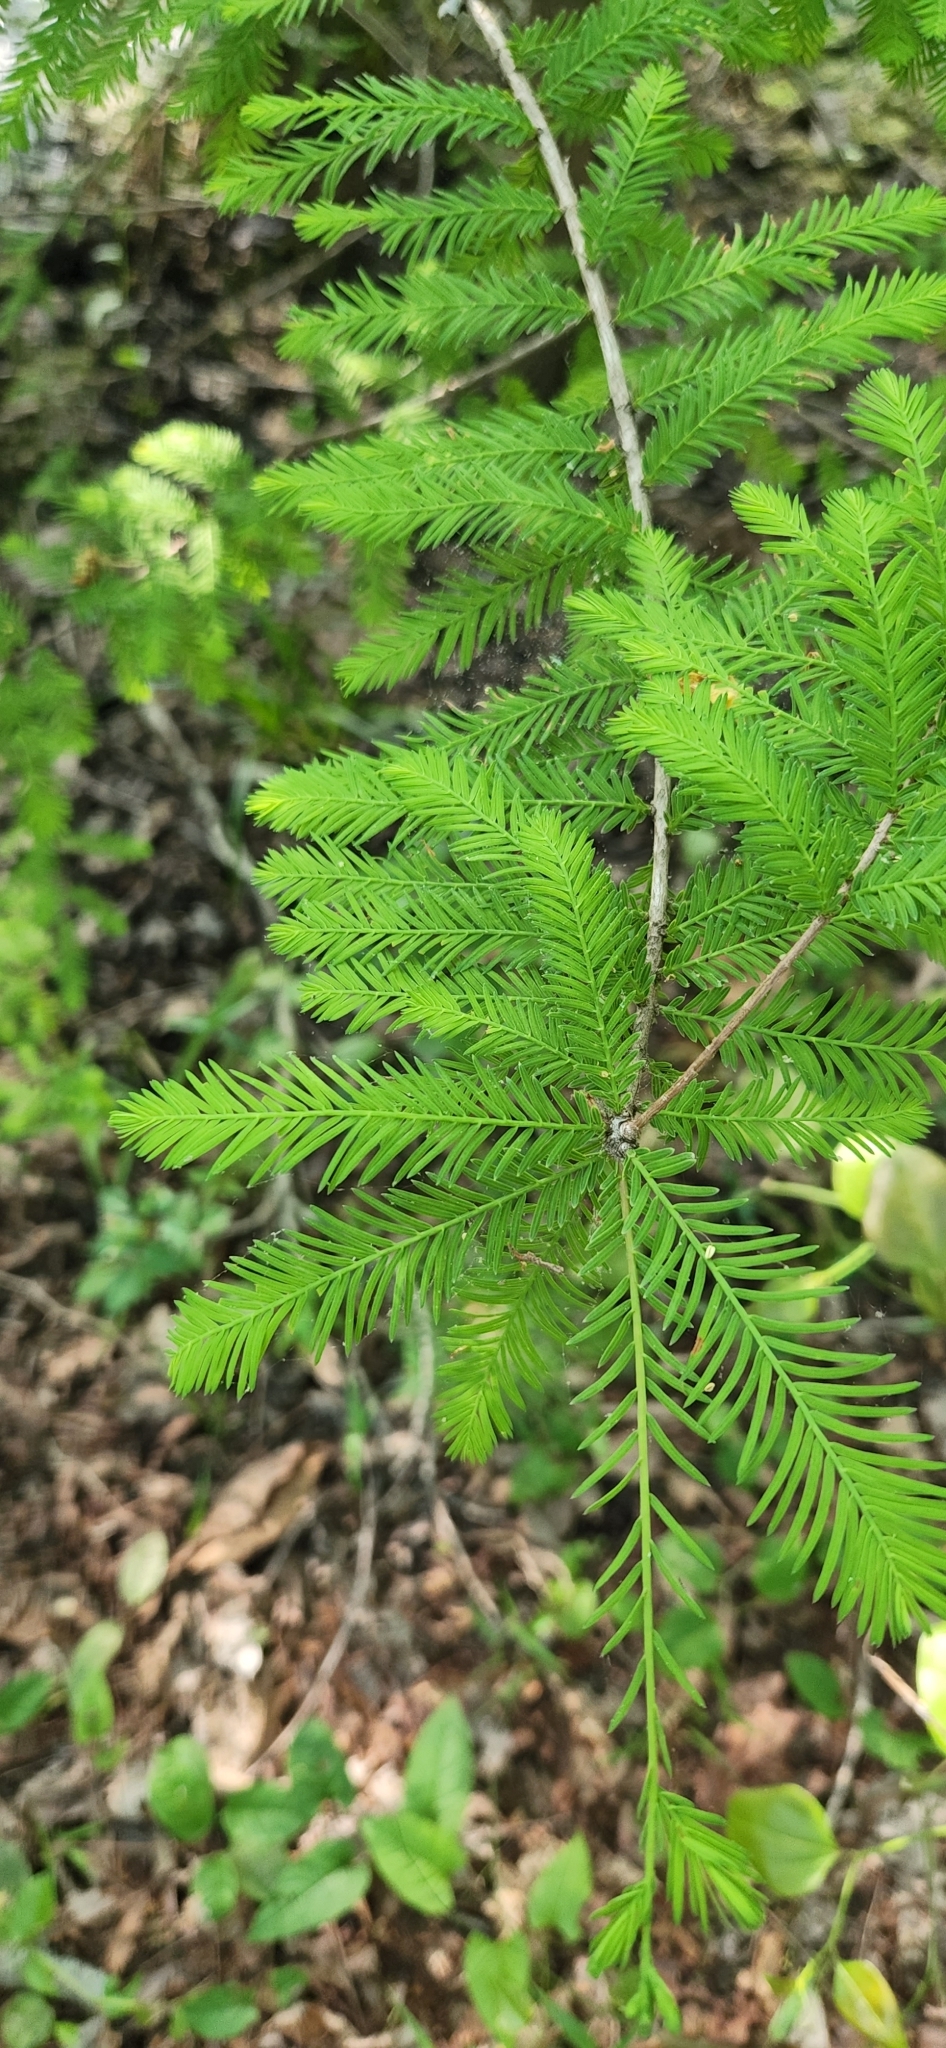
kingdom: Plantae
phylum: Tracheophyta
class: Pinopsida
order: Pinales
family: Cupressaceae
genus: Taxodium
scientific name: Taxodium distichum
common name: Bald cypress
